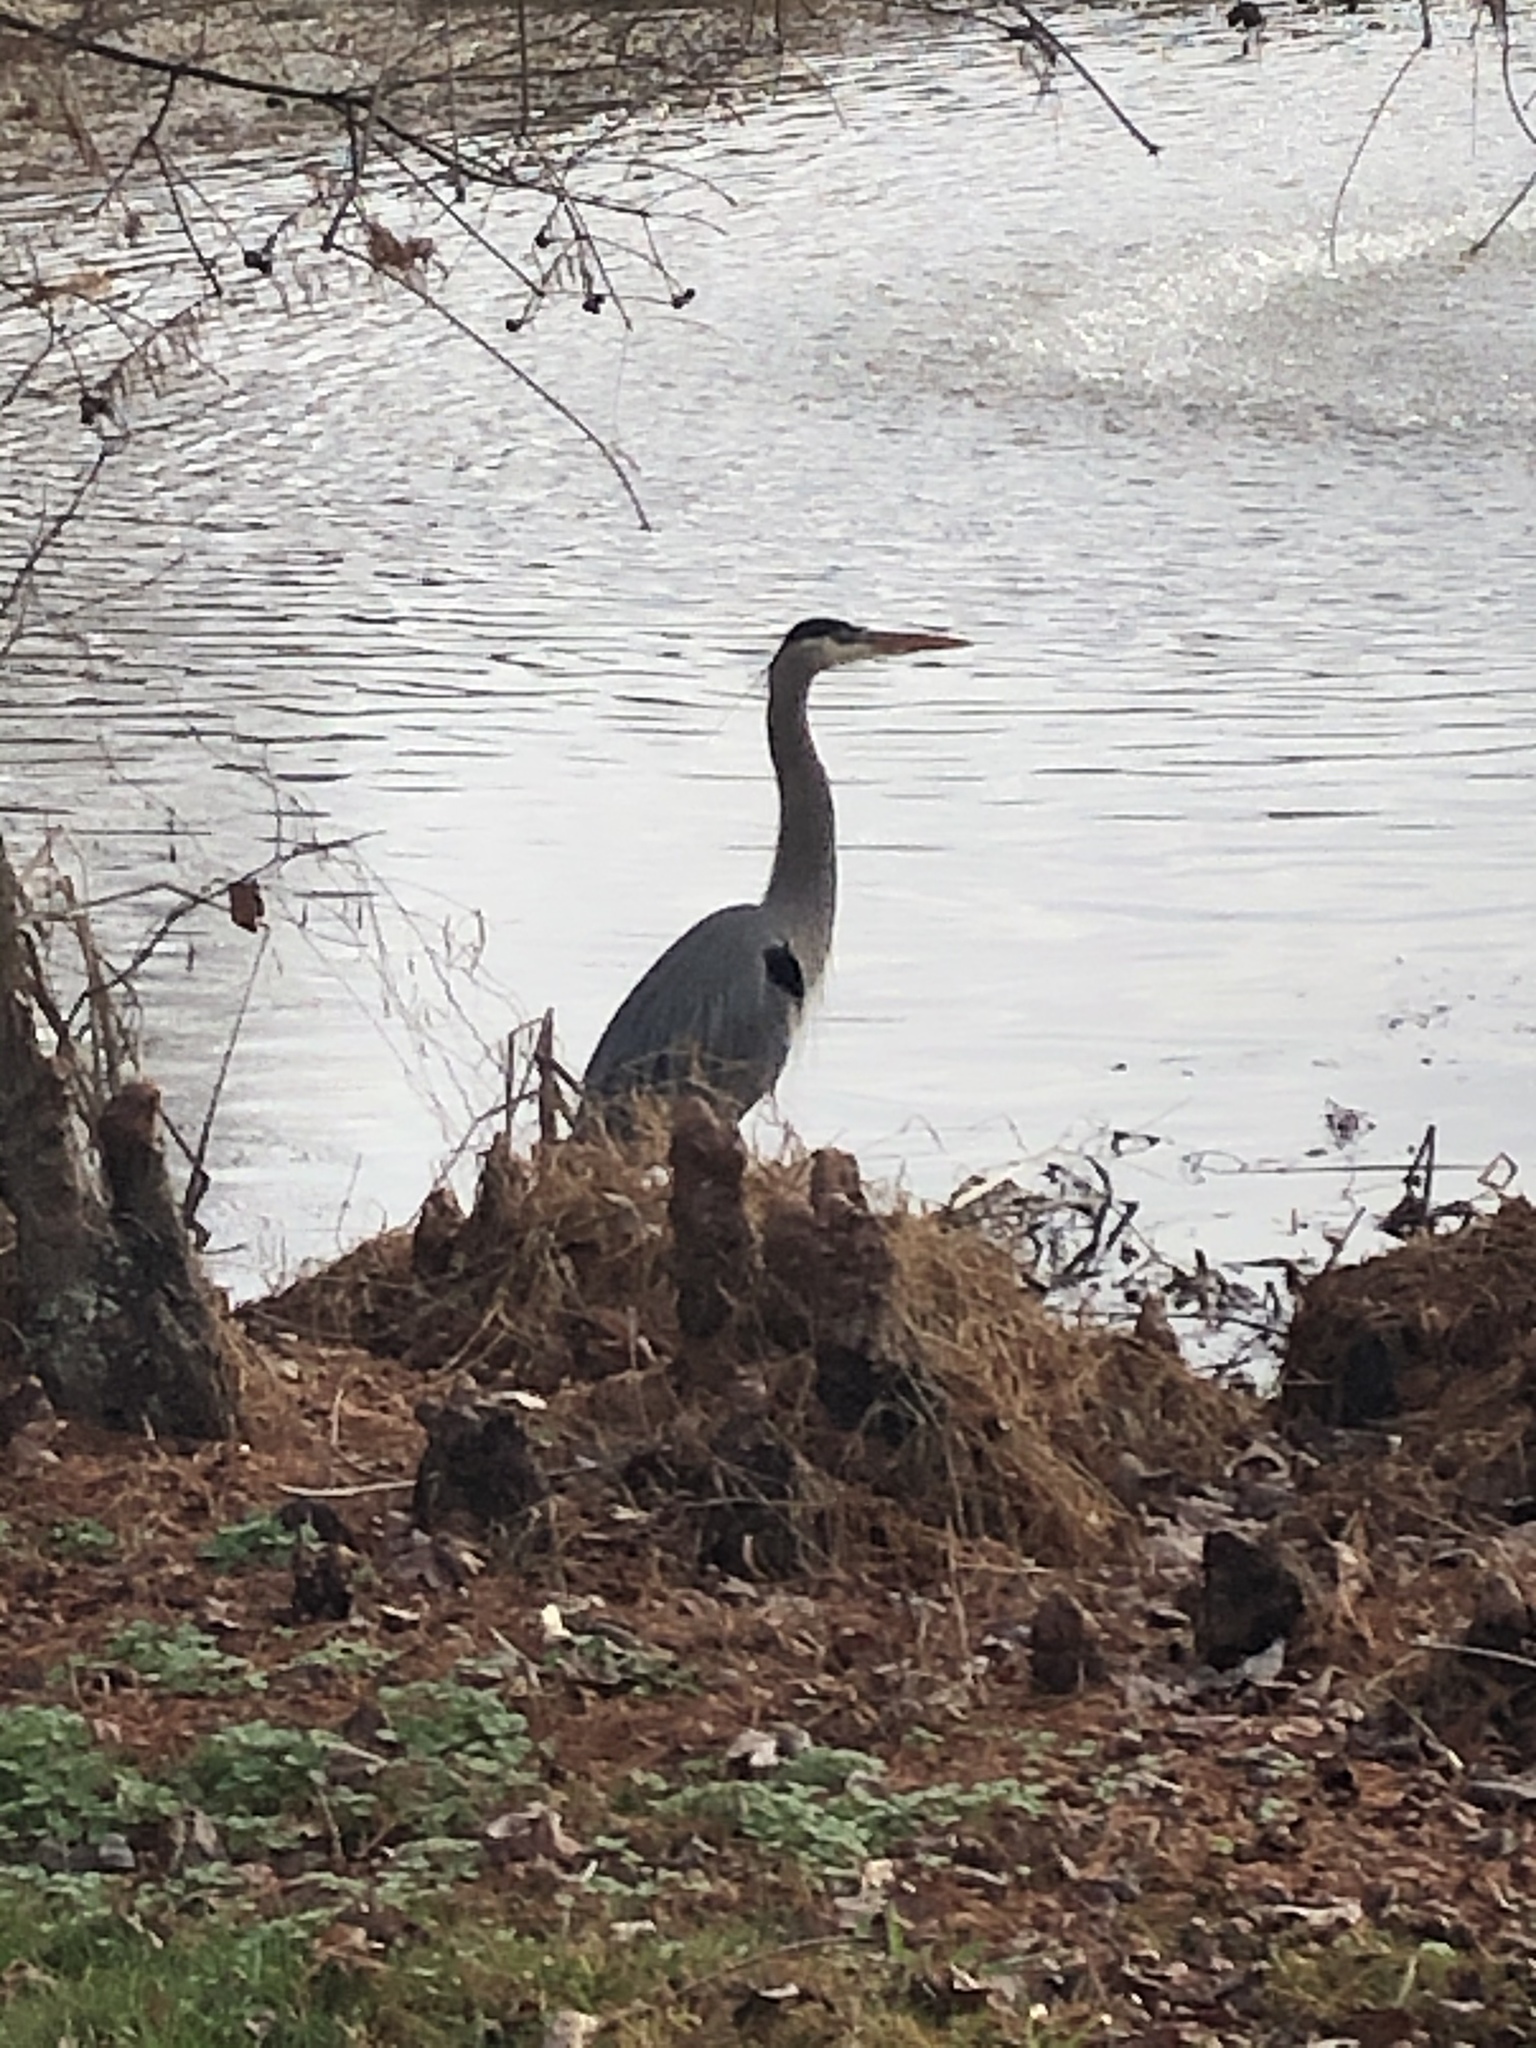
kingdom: Animalia
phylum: Chordata
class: Aves
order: Pelecaniformes
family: Ardeidae
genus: Ardea
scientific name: Ardea herodias
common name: Great blue heron
